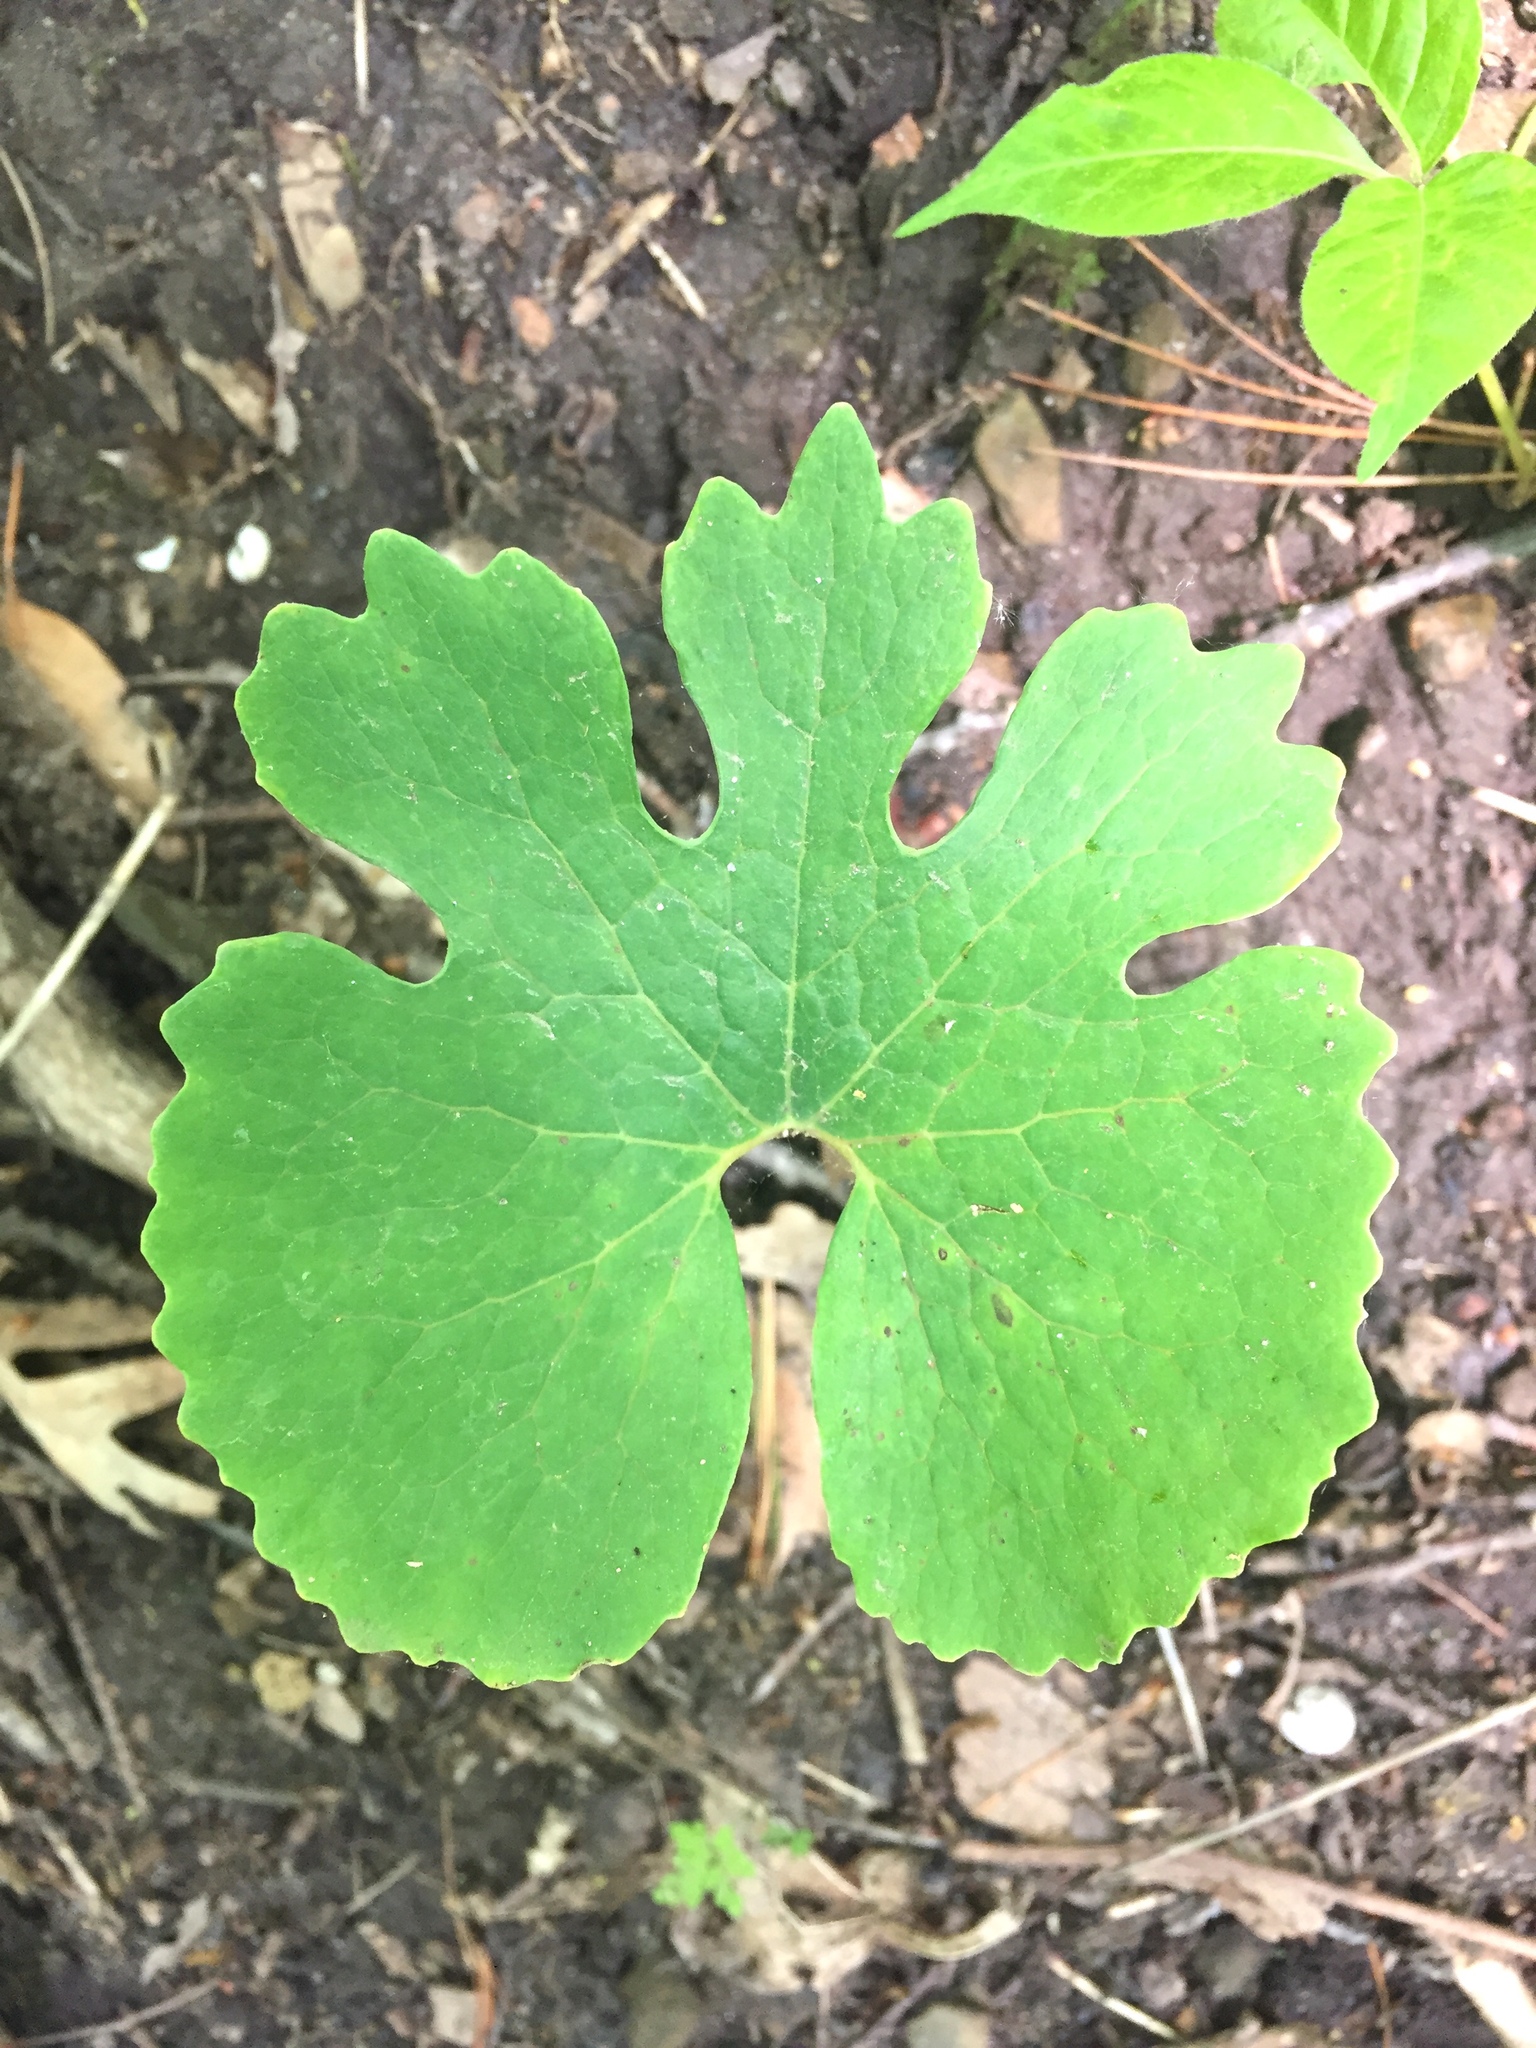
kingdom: Plantae
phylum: Tracheophyta
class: Magnoliopsida
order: Ranunculales
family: Papaveraceae
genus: Sanguinaria
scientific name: Sanguinaria canadensis
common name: Bloodroot
